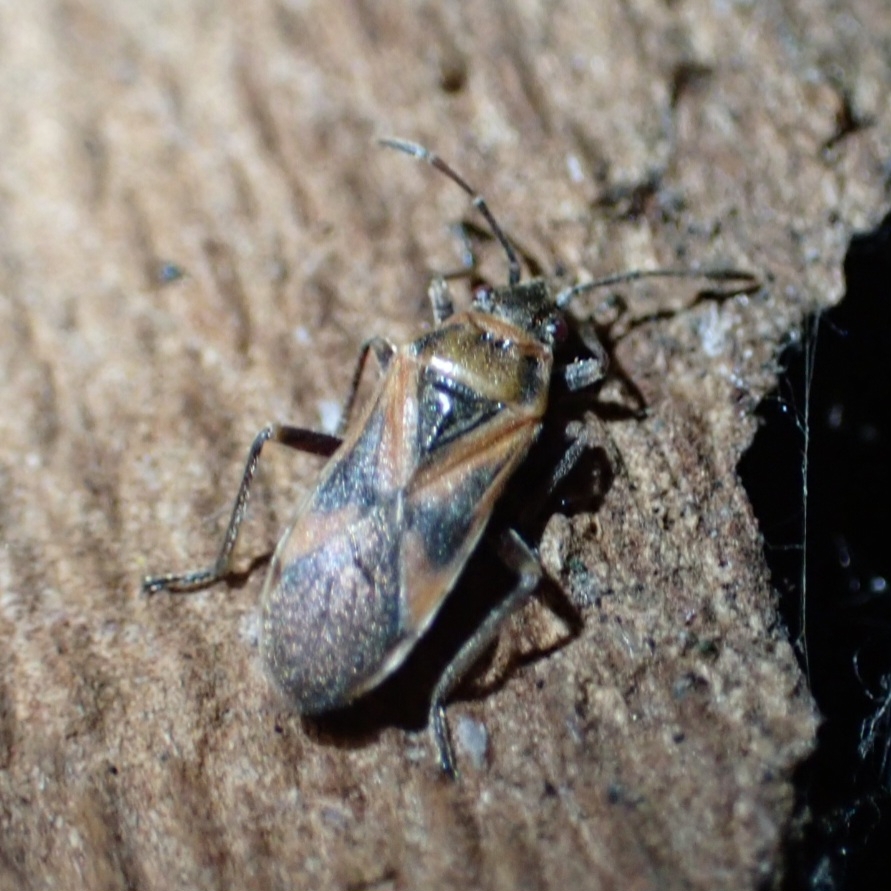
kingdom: Animalia
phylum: Arthropoda
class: Insecta
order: Hemiptera
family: Lygaeidae
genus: Arocatus
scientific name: Arocatus longiceps
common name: Plane tree bug
